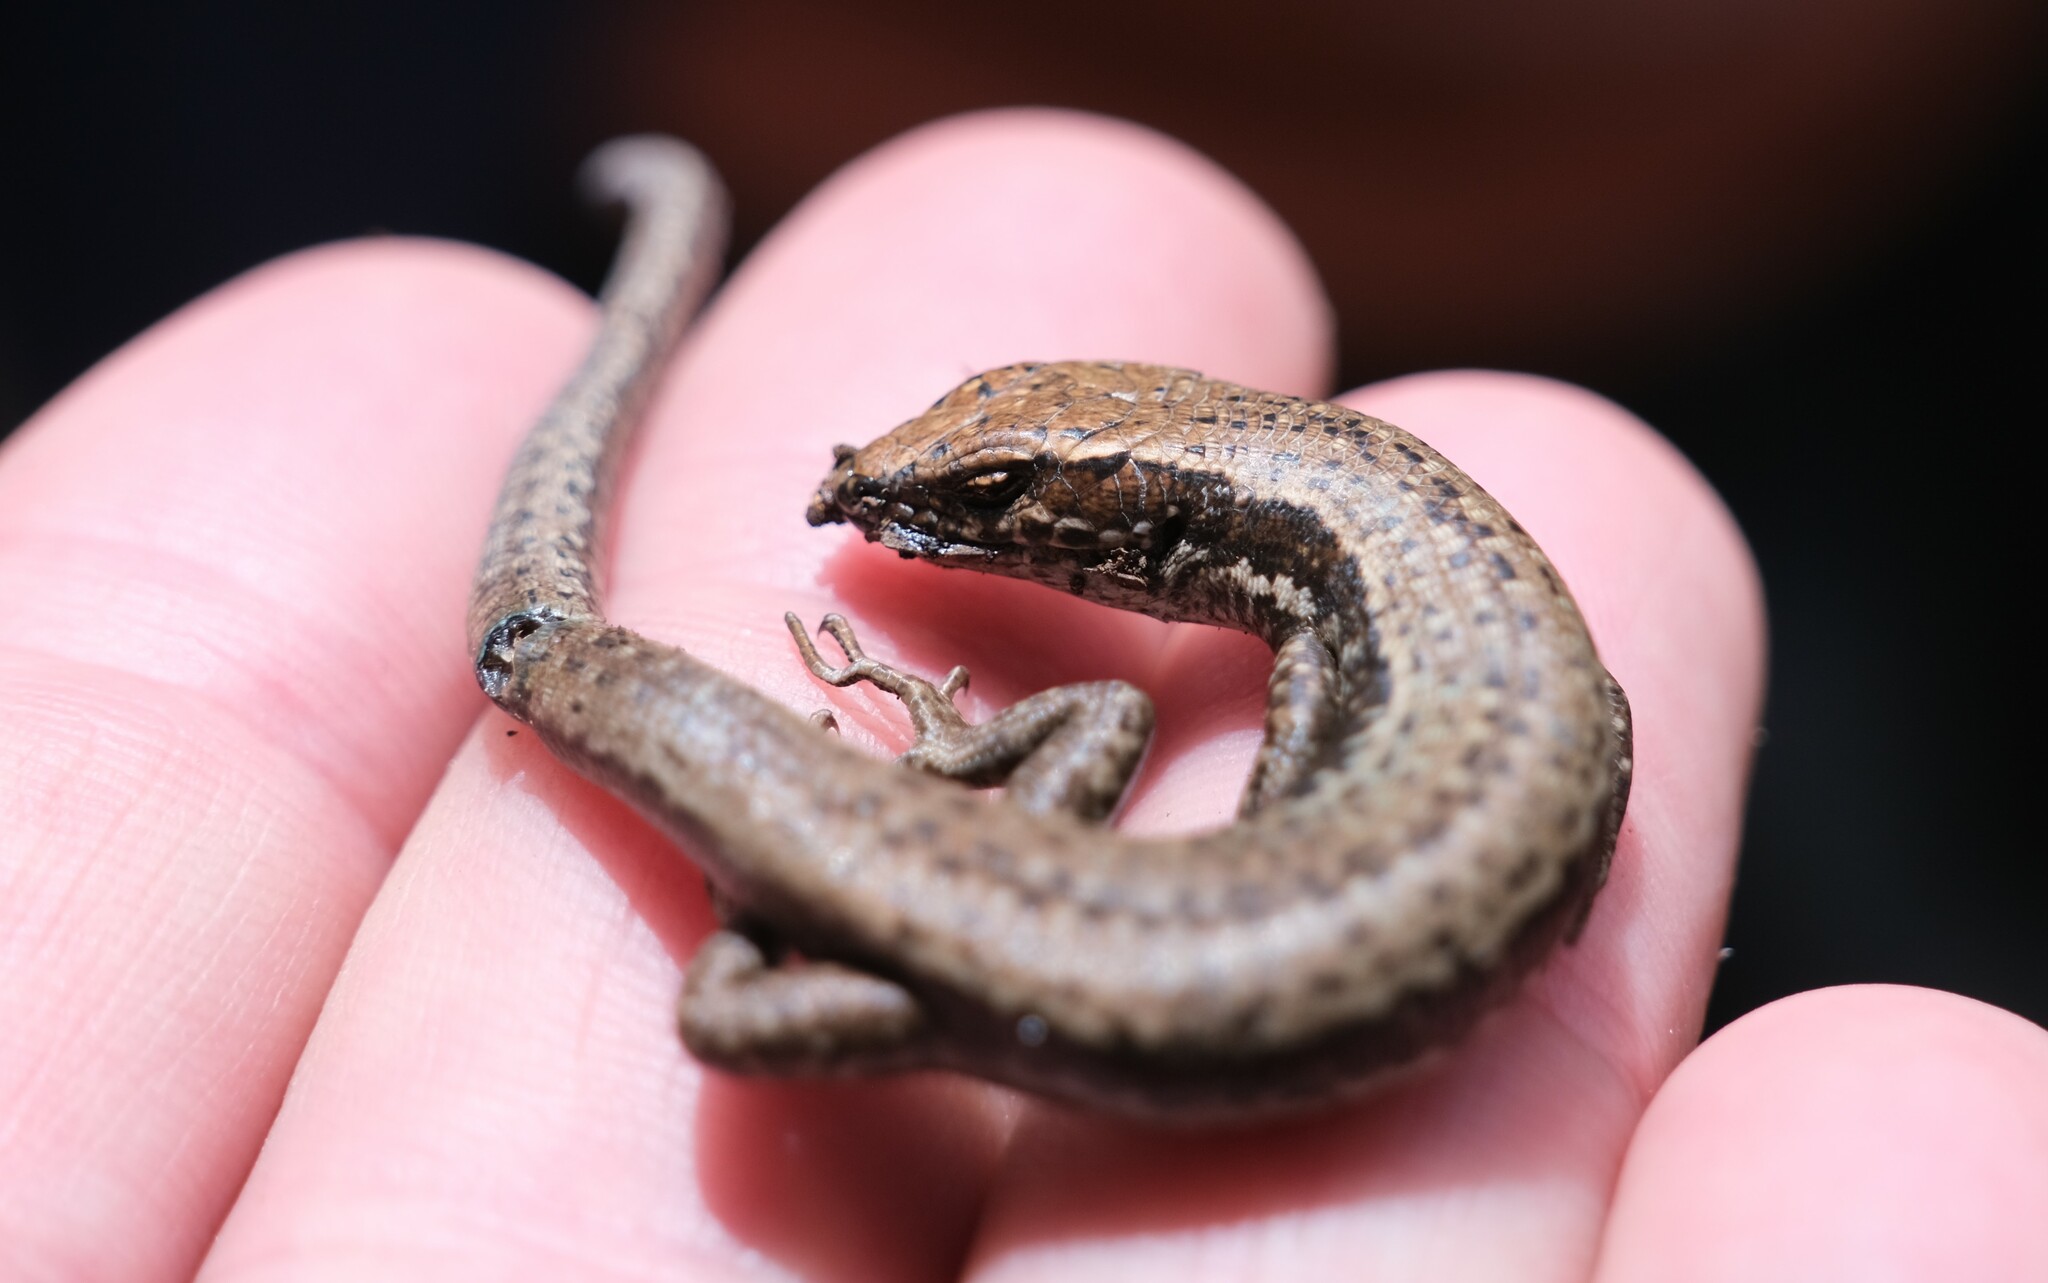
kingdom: Animalia
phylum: Chordata
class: Squamata
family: Scincidae
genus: Carinascincus
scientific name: Carinascincus metallicus
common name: Metallic cool-skink
